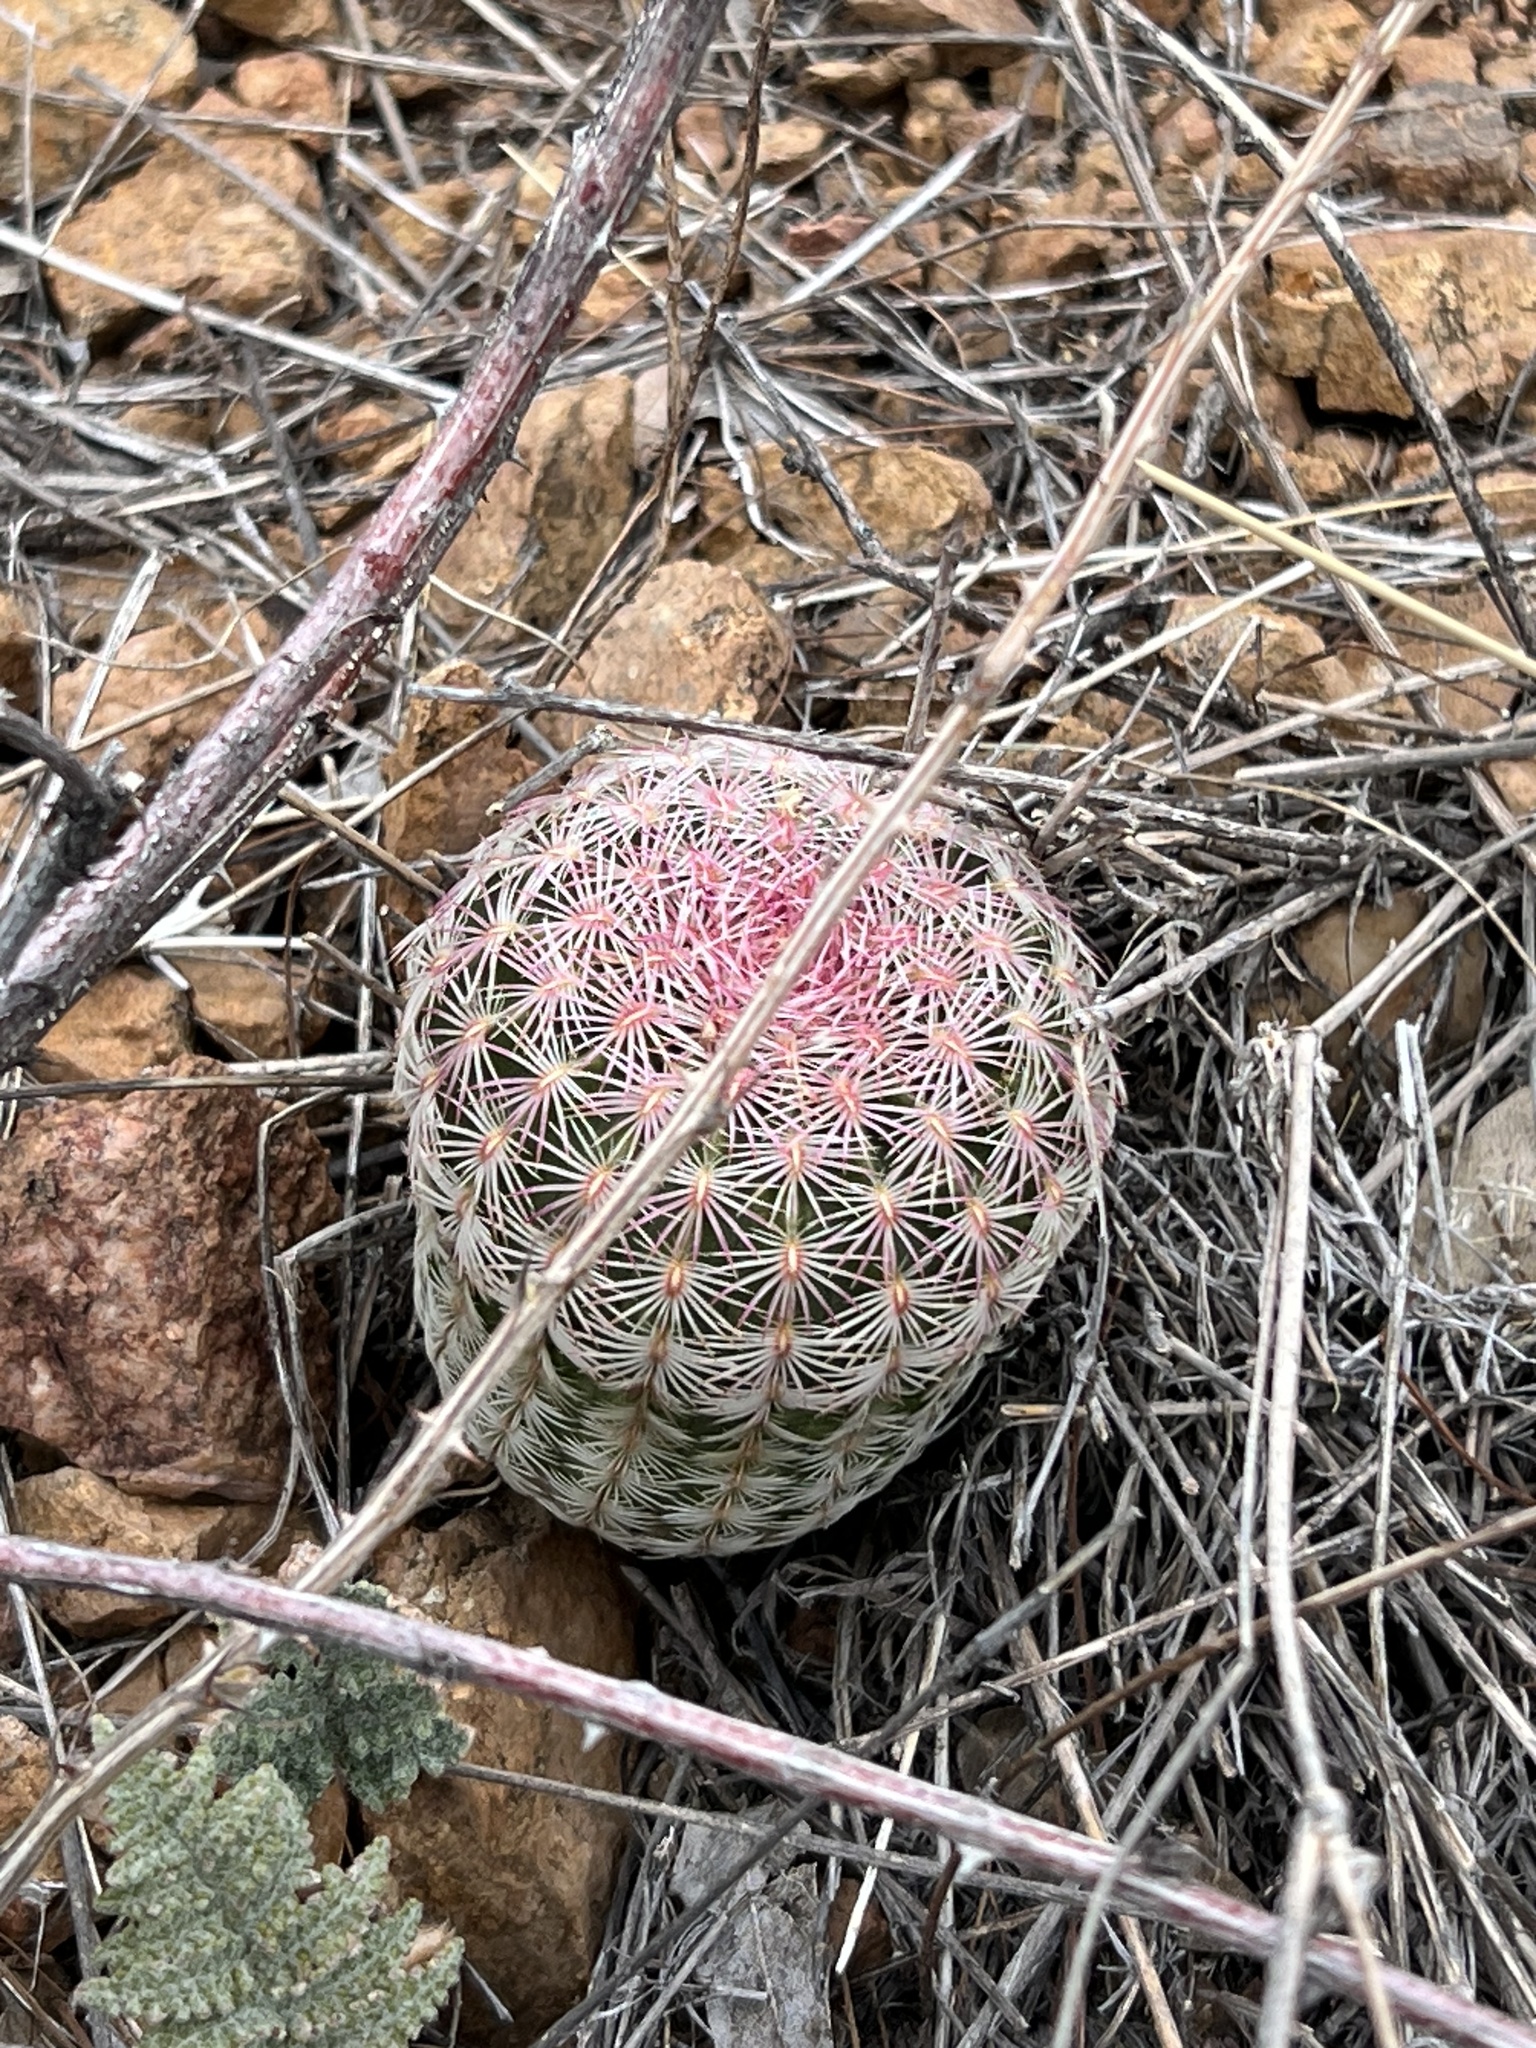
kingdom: Plantae
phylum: Tracheophyta
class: Magnoliopsida
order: Caryophyllales
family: Cactaceae
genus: Echinocereus
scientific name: Echinocereus rigidissimus
